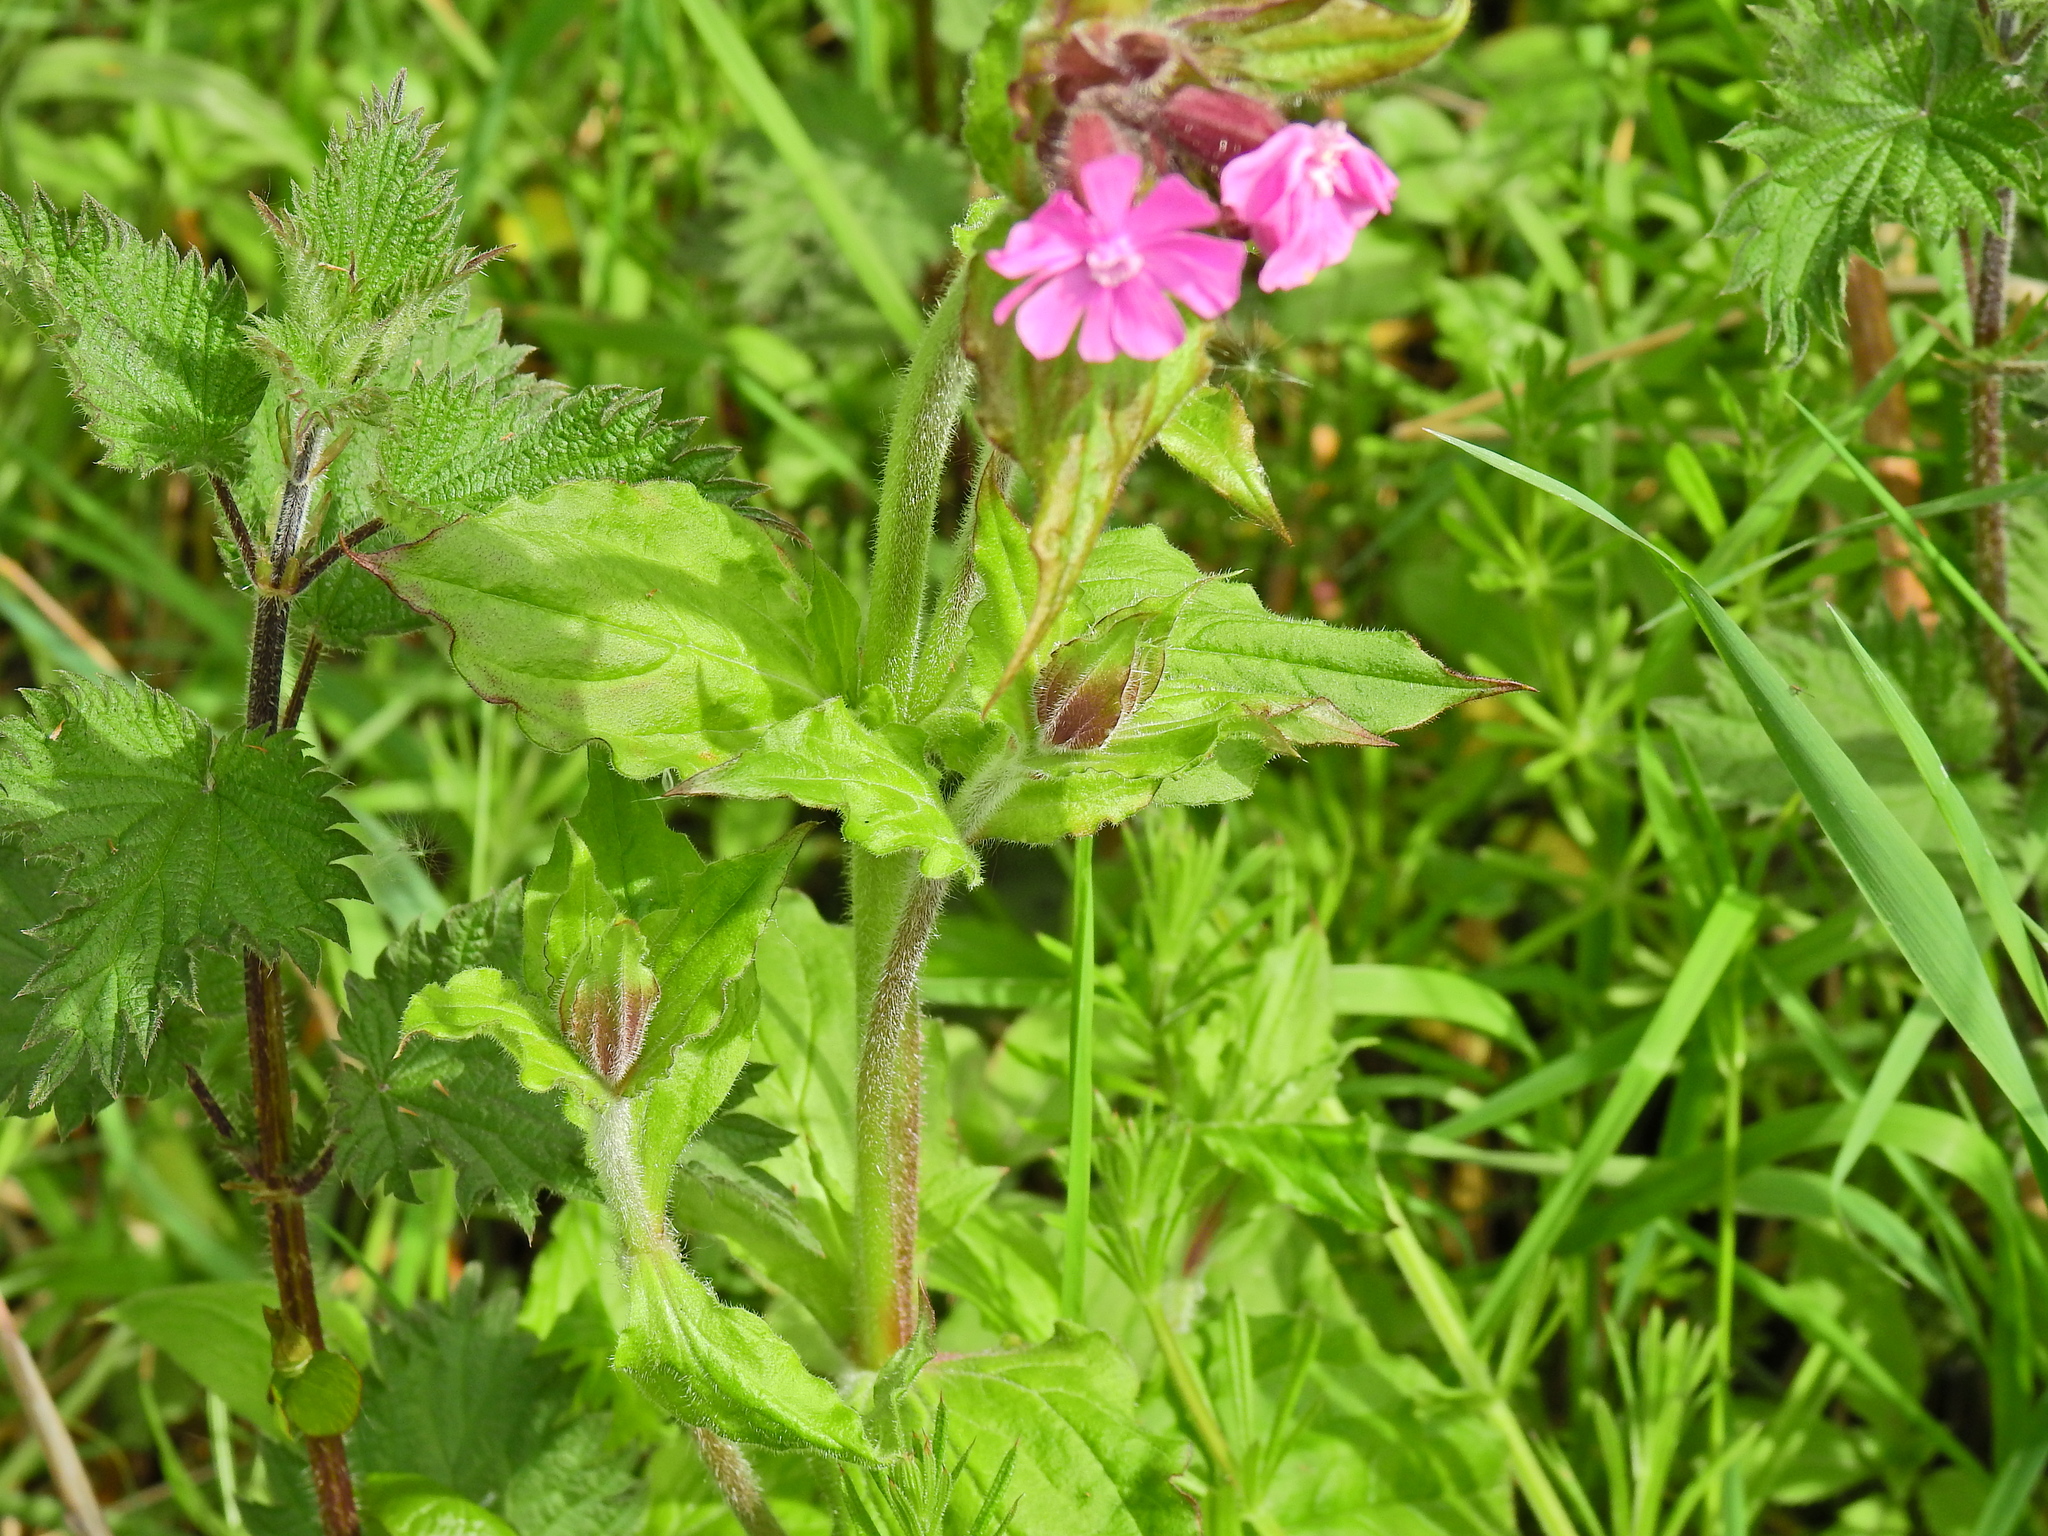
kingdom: Plantae
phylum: Tracheophyta
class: Magnoliopsida
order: Caryophyllales
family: Caryophyllaceae
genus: Silene
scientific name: Silene dioica
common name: Red campion
